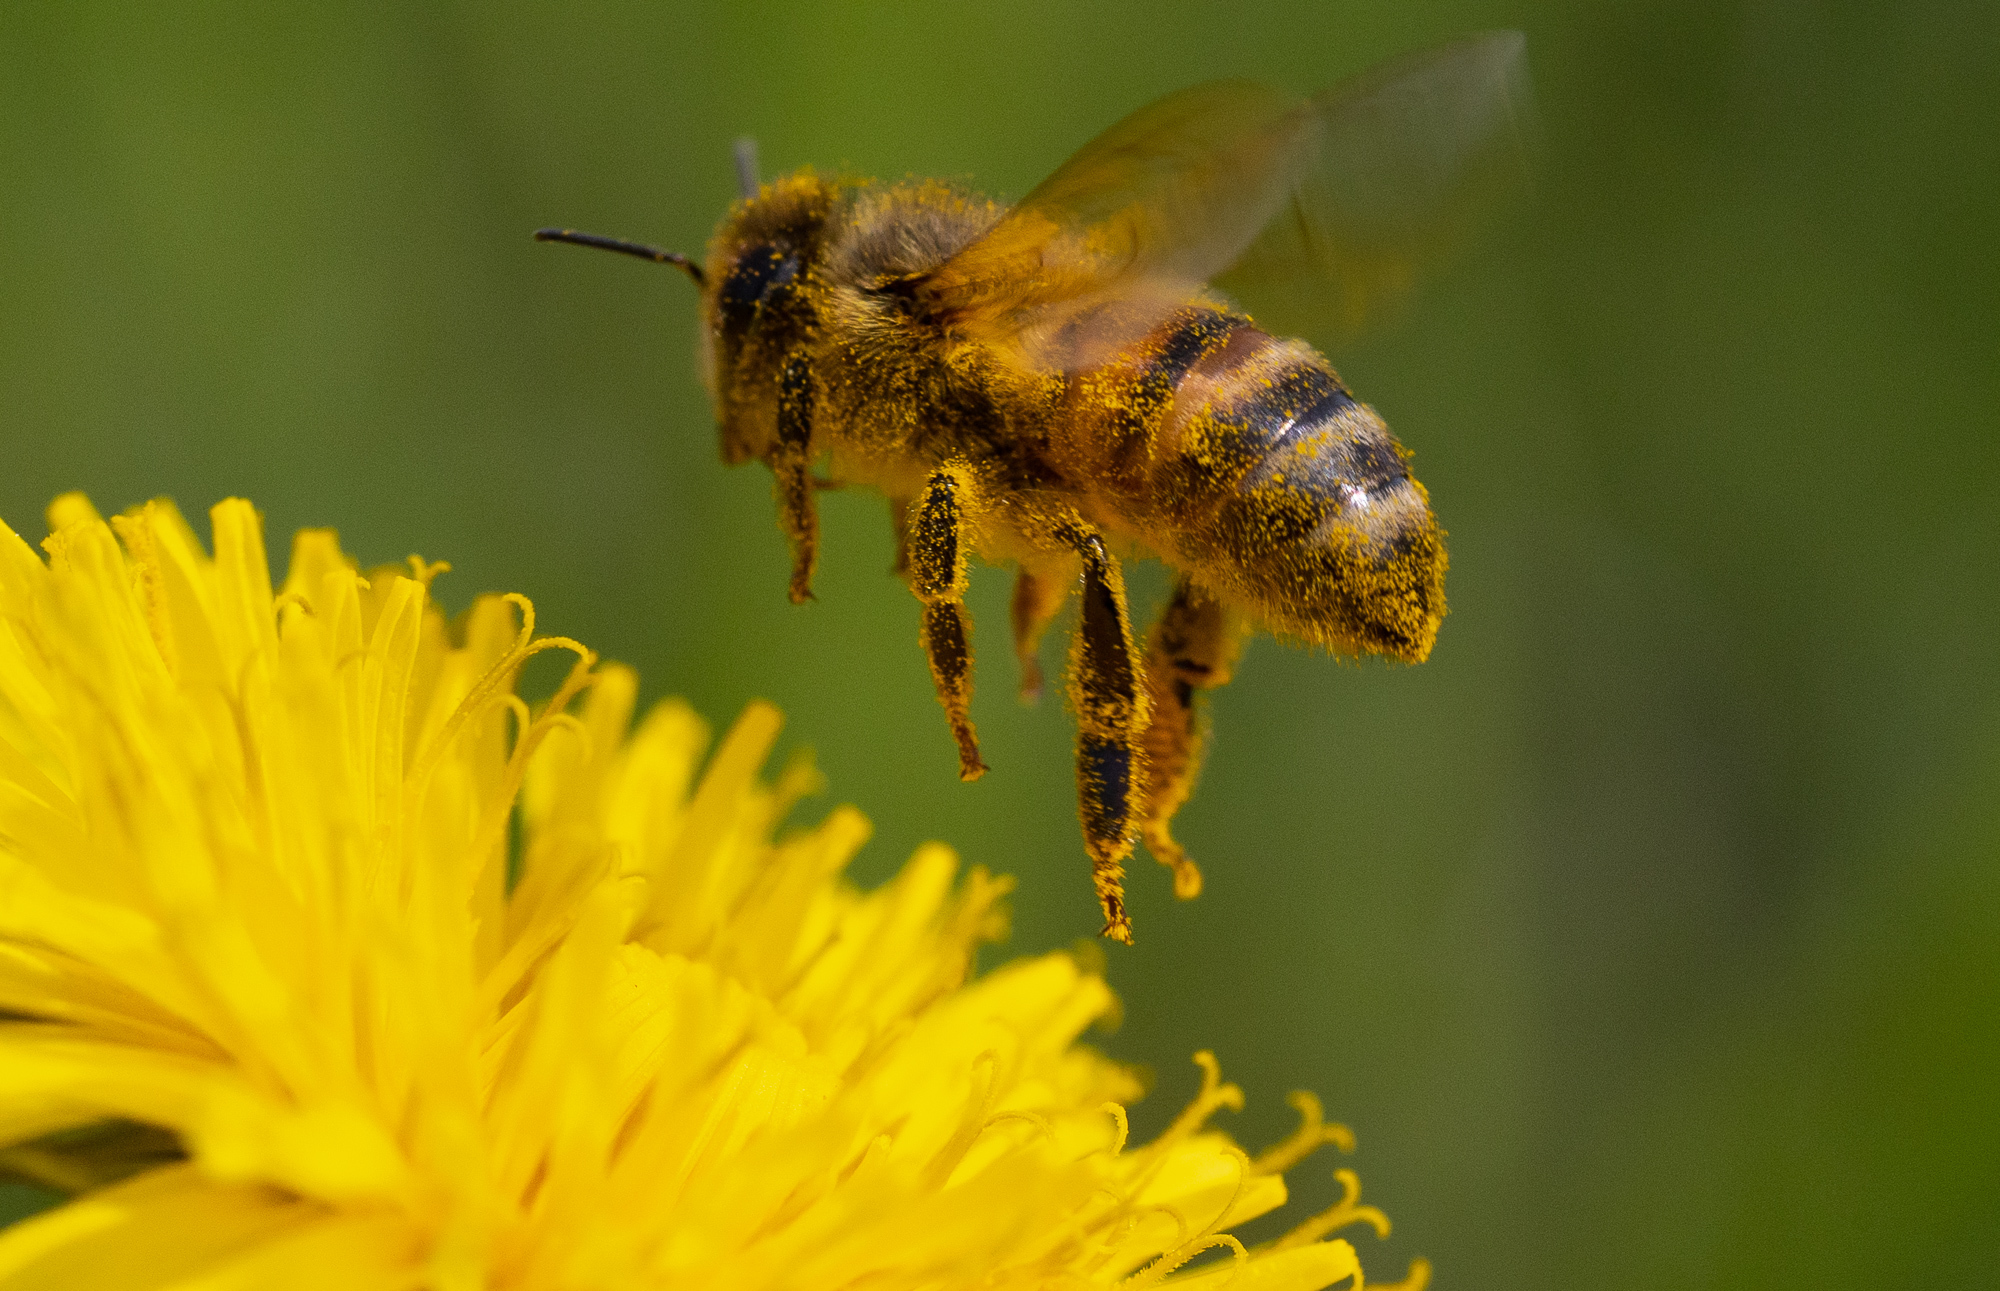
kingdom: Animalia
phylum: Arthropoda
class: Insecta
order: Hymenoptera
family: Apidae
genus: Apis
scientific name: Apis mellifera
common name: Honey bee
